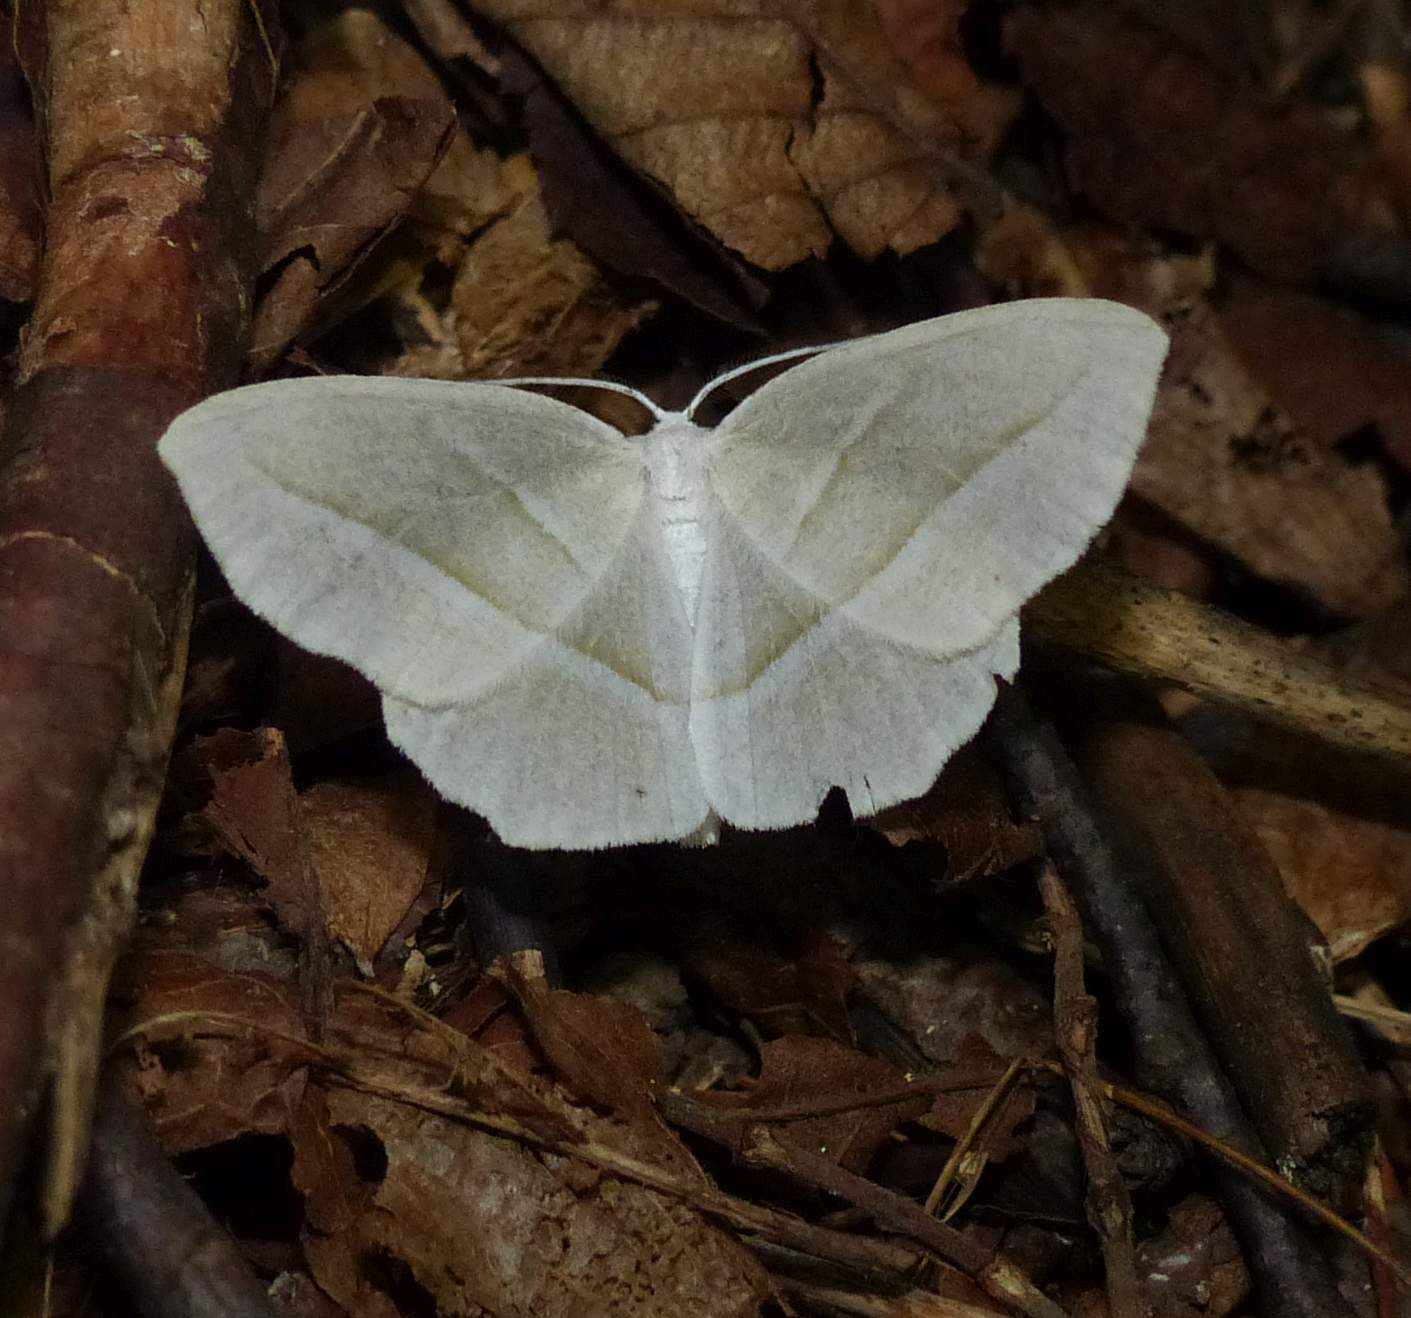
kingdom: Animalia
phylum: Arthropoda
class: Insecta
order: Lepidoptera
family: Geometridae
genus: Campaea
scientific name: Campaea perlata
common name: Fringed looper
